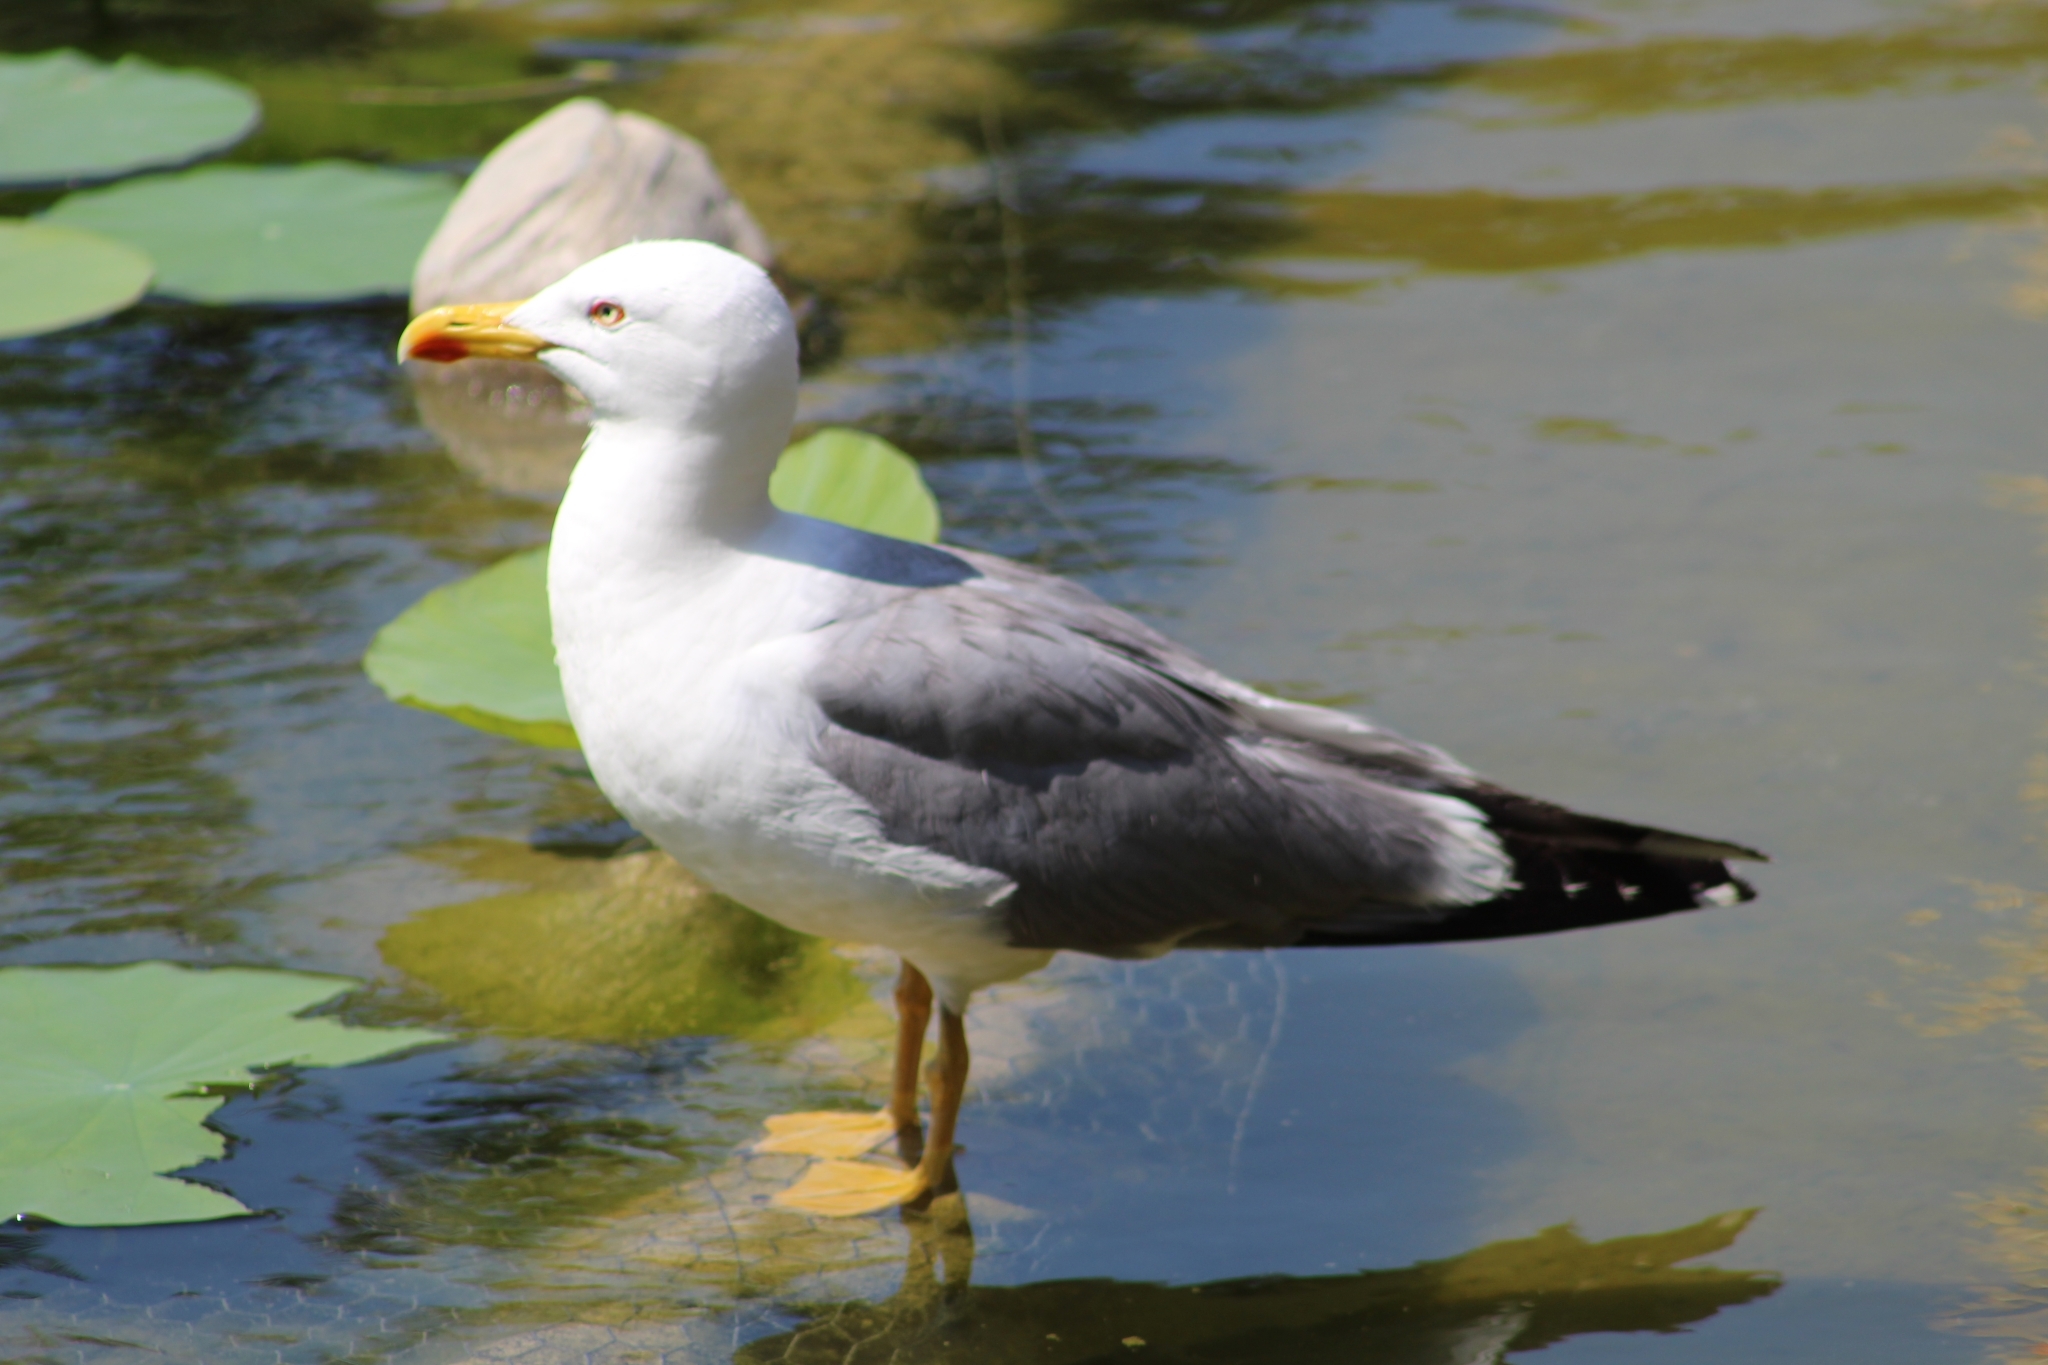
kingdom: Animalia
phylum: Chordata
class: Aves
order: Charadriiformes
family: Laridae
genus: Larus
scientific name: Larus michahellis
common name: Yellow-legged gull
